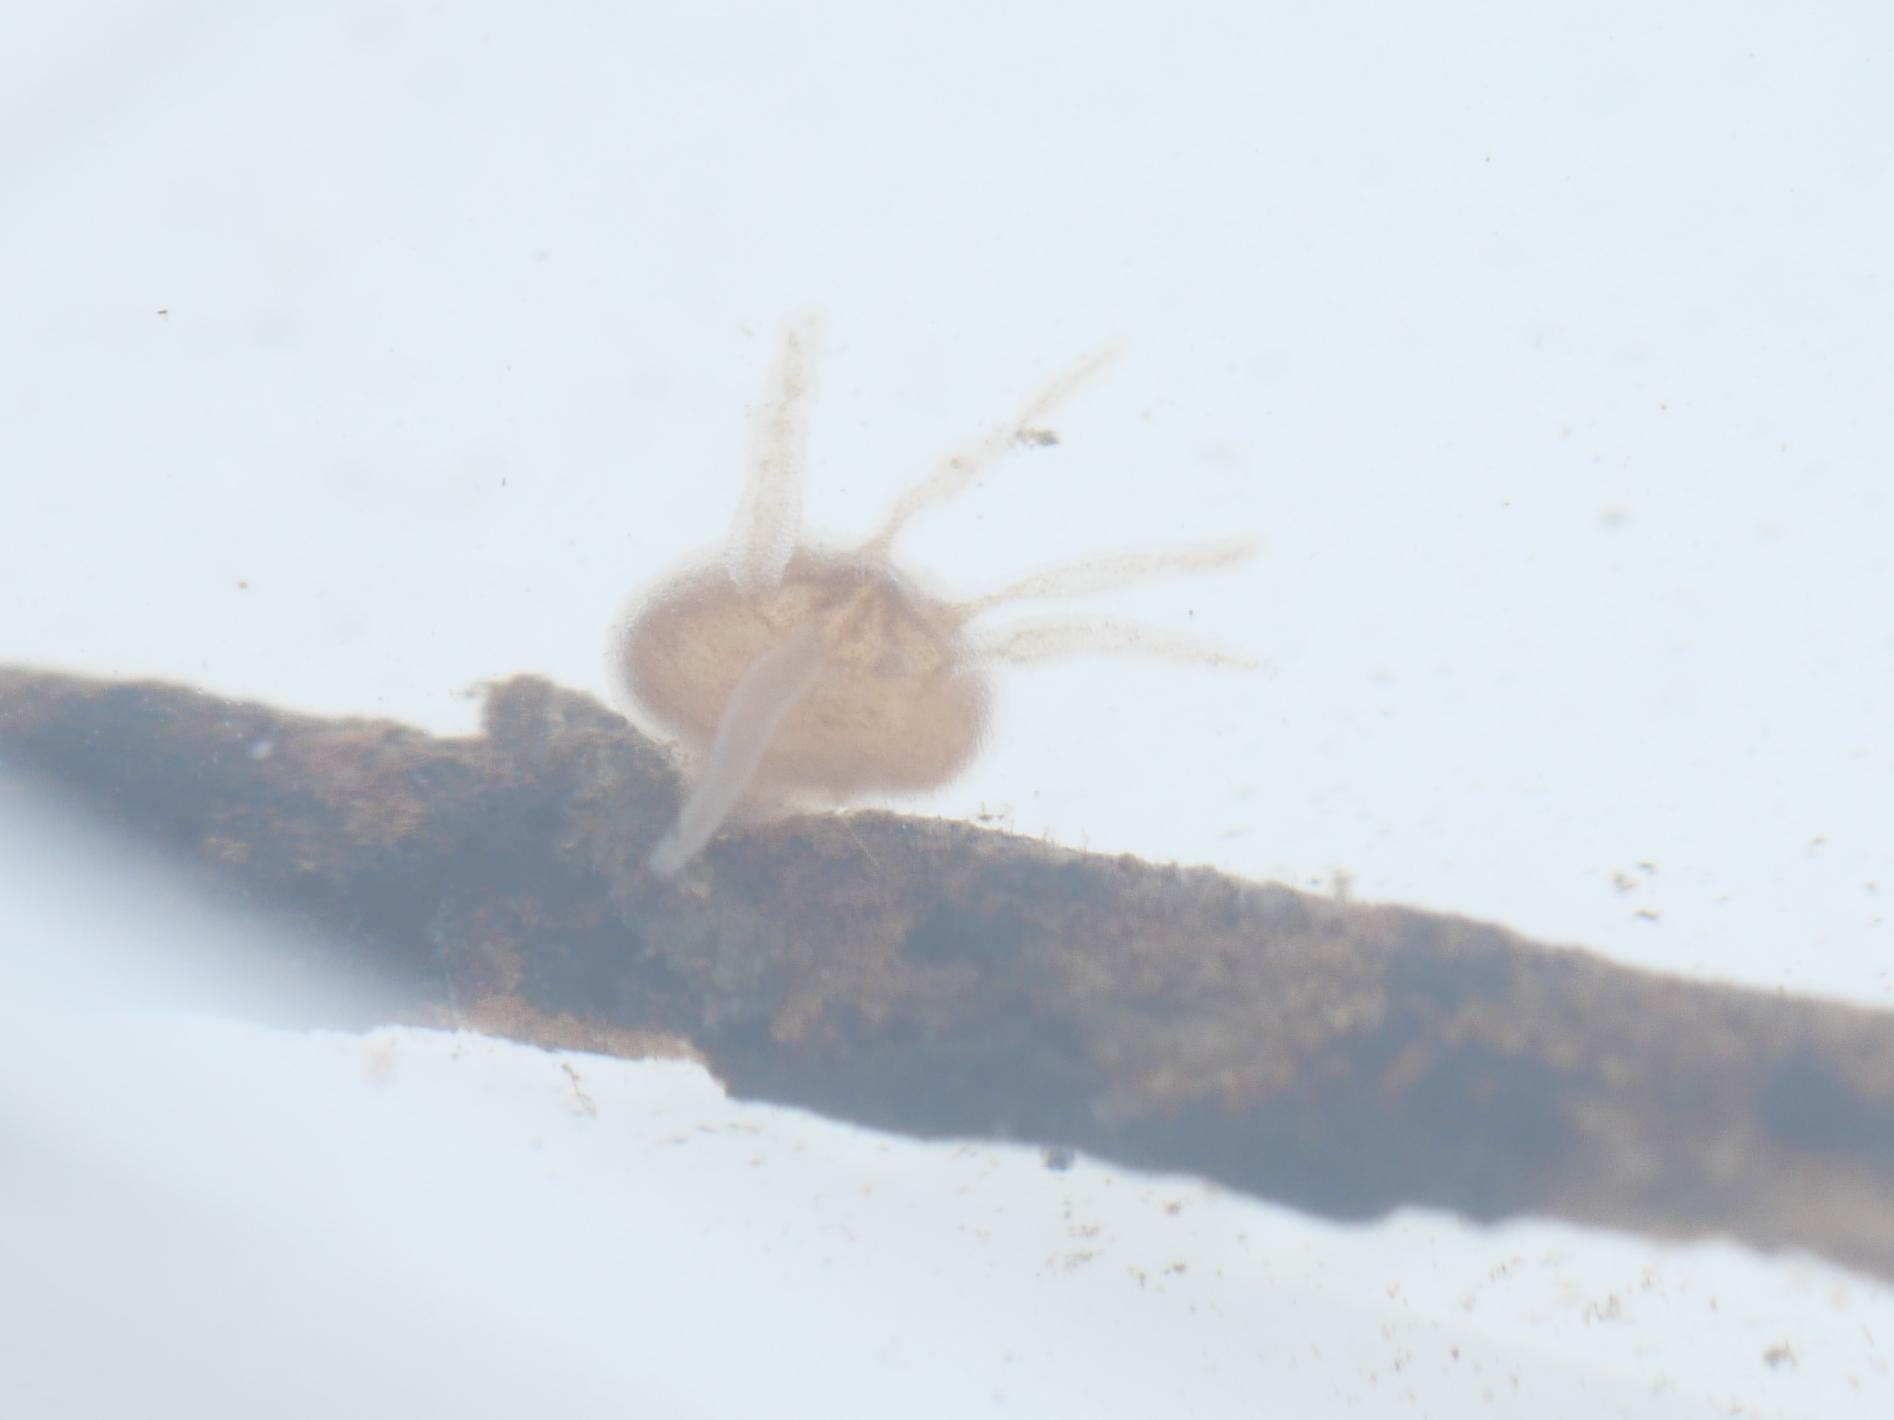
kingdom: Animalia
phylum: Cnidaria
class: Hydrozoa
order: Anthoathecata
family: Hydridae
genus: Hydra
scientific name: Hydra oligactis
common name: Brown hydra
